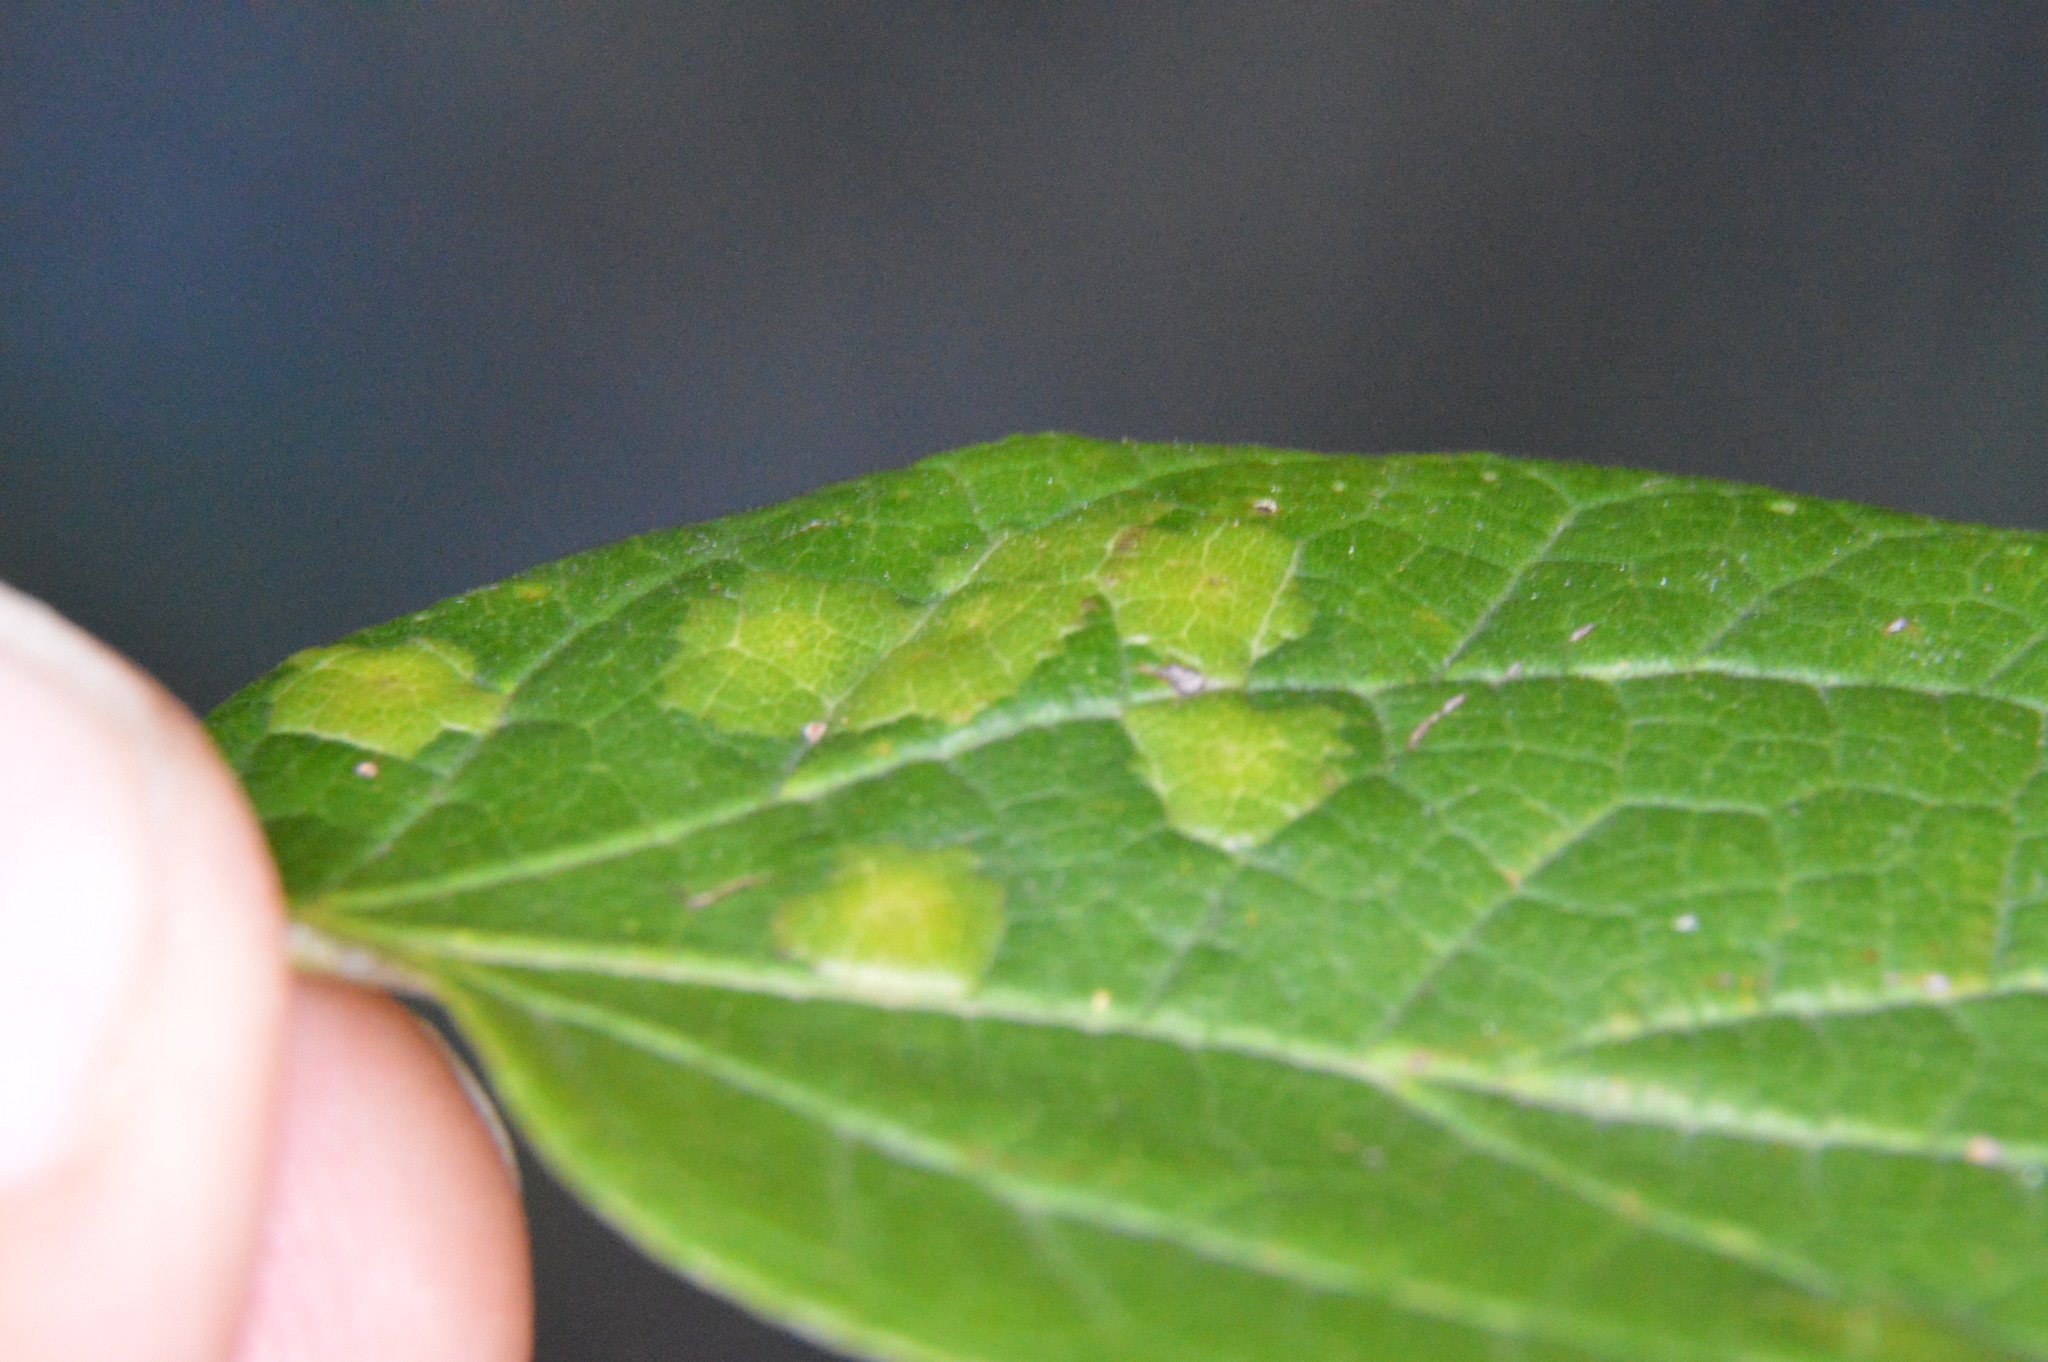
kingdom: Animalia
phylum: Arthropoda
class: Insecta
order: Hemiptera
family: Aphalaridae
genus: Pachypsylla
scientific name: Pachypsylla celtidisvesicula
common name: Hackberry blister gall psyllid
